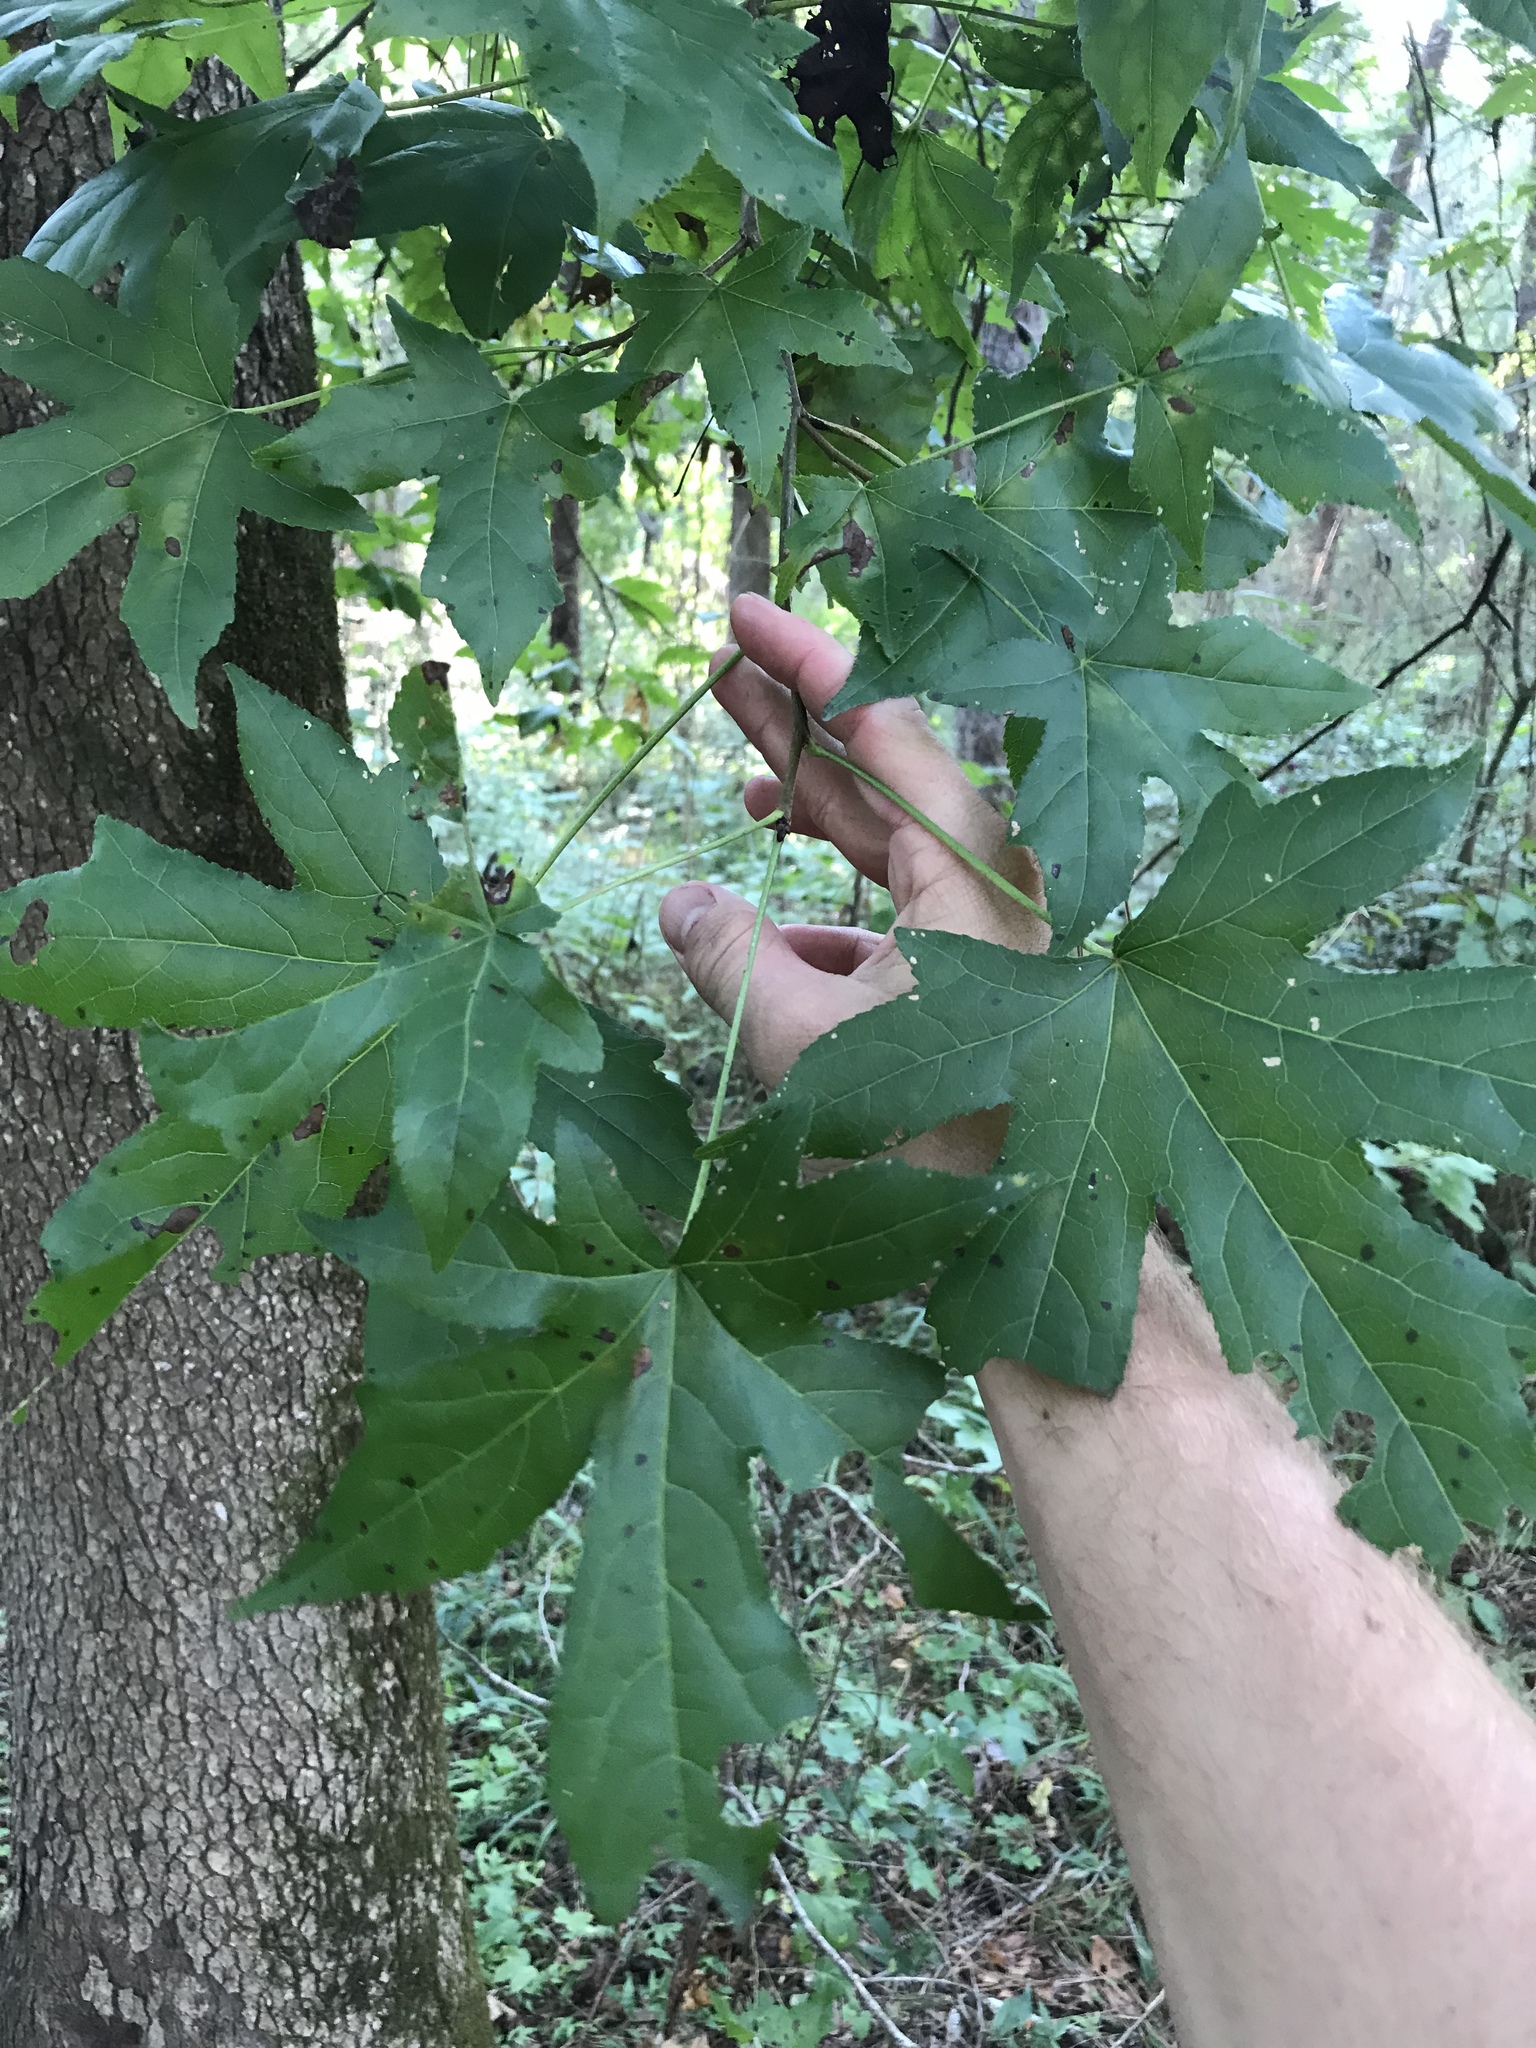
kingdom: Plantae
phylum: Tracheophyta
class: Magnoliopsida
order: Saxifragales
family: Altingiaceae
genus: Liquidambar
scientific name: Liquidambar styraciflua
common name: Sweet gum
